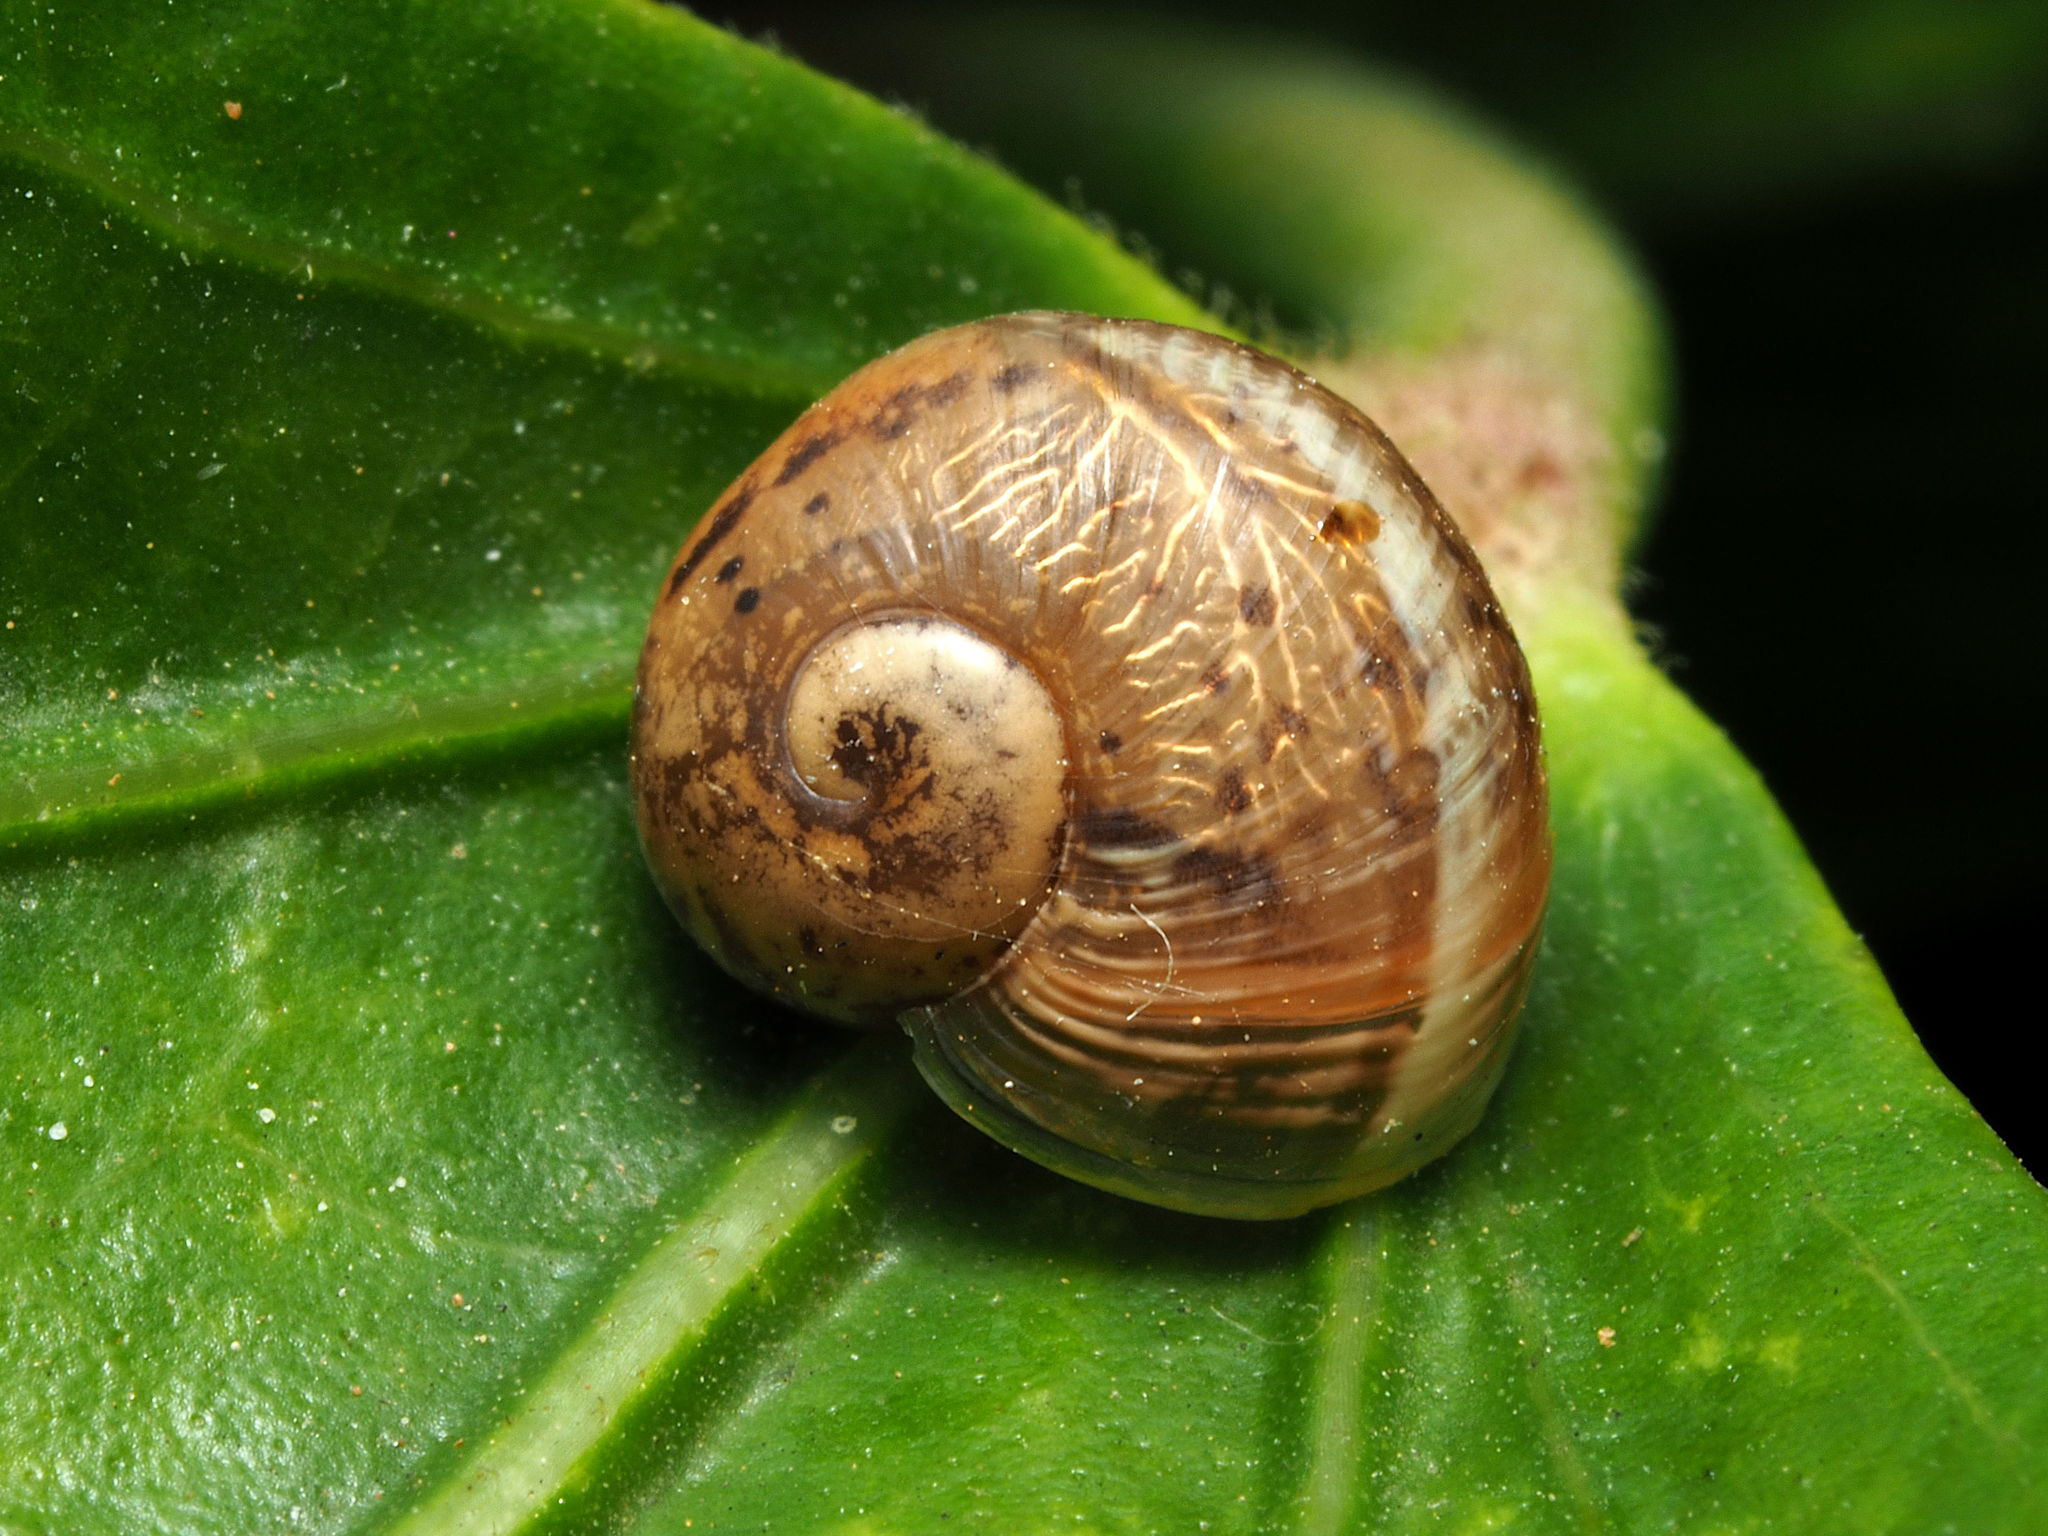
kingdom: Animalia
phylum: Mollusca
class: Gastropoda
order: Stylommatophora
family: Helicidae
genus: Cornu
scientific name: Cornu aspersum
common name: Brown garden snail
